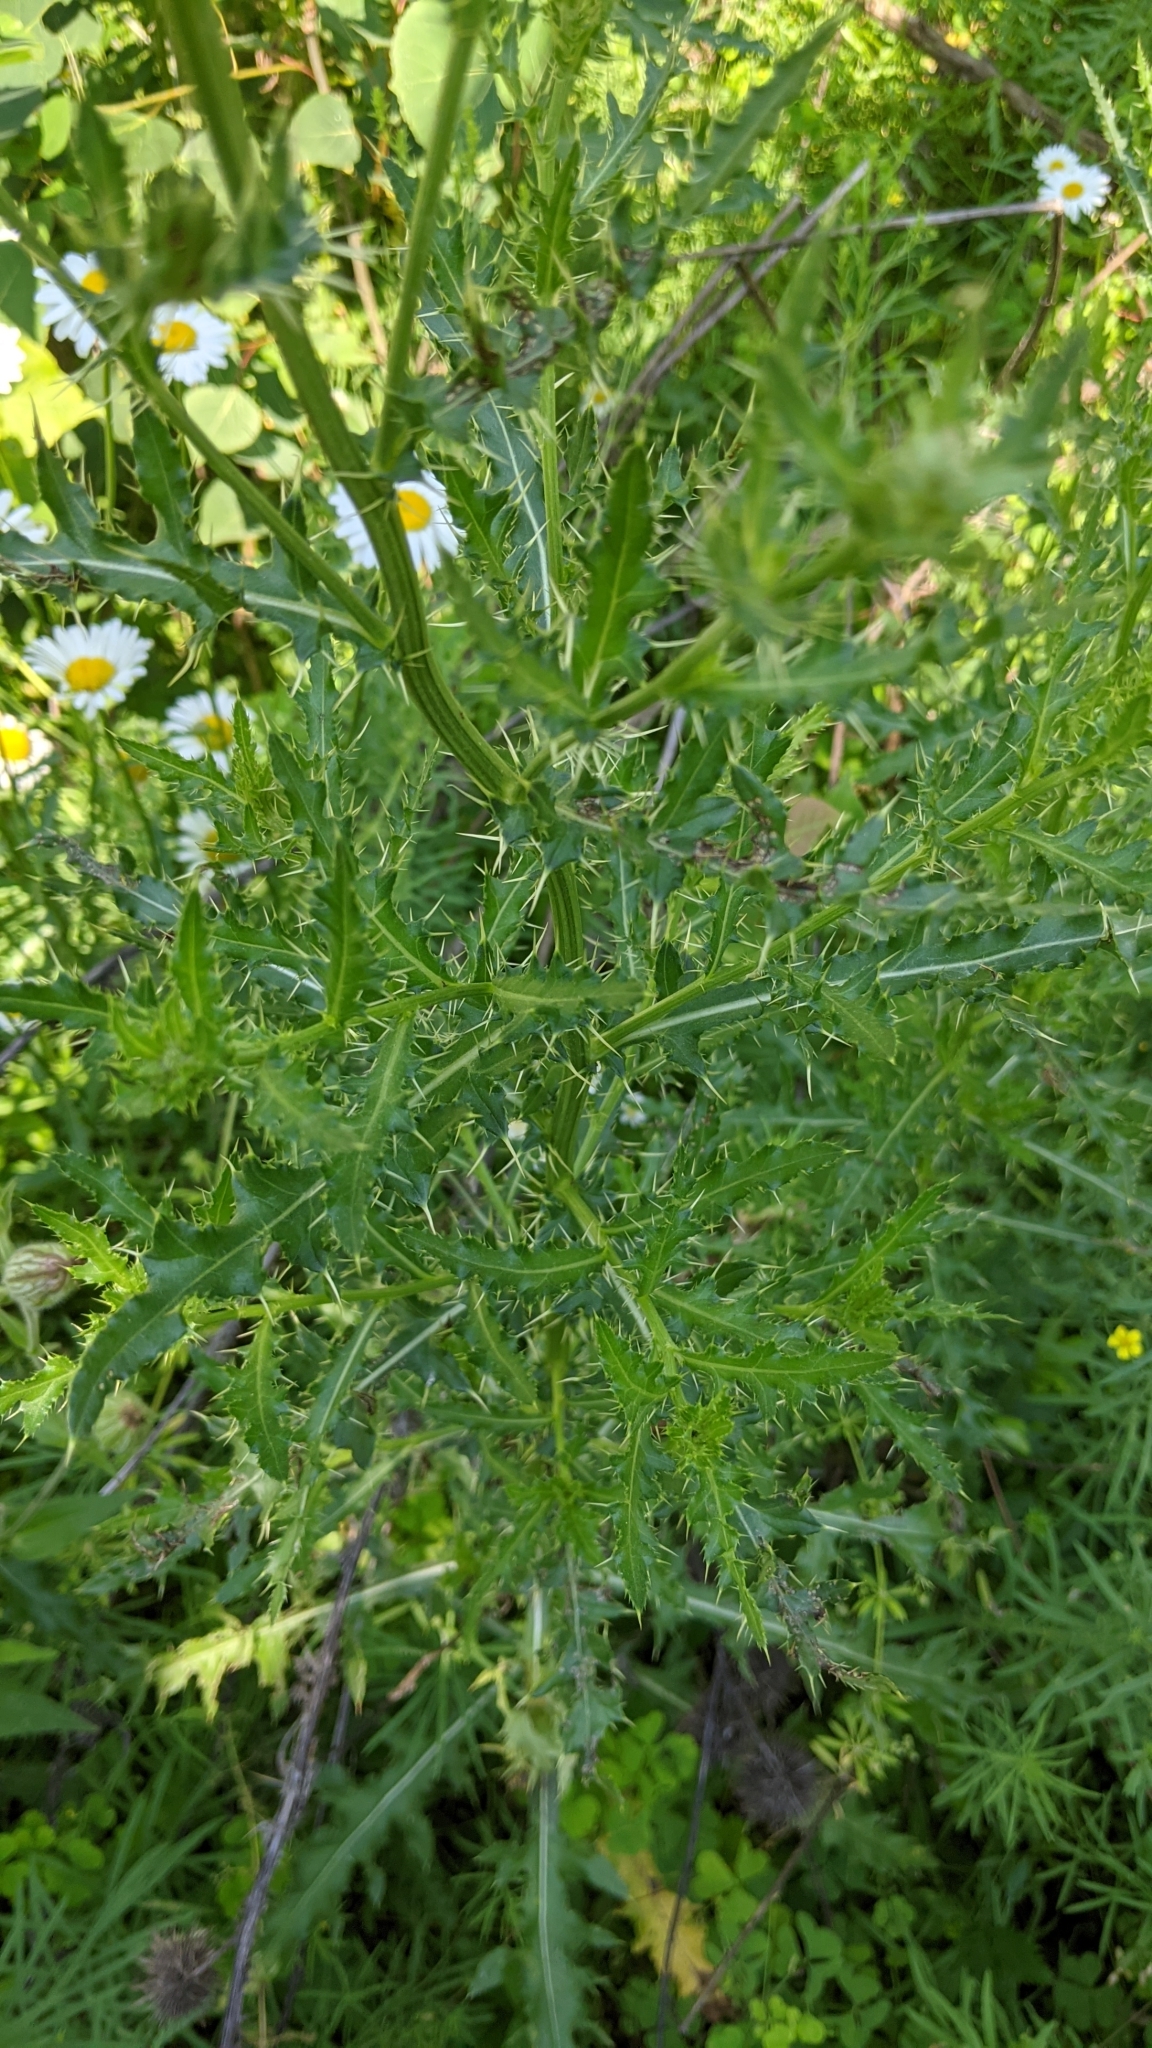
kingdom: Plantae
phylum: Tracheophyta
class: Magnoliopsida
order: Asterales
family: Asteraceae
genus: Cirsium
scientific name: Cirsium arvense
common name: Creeping thistle
